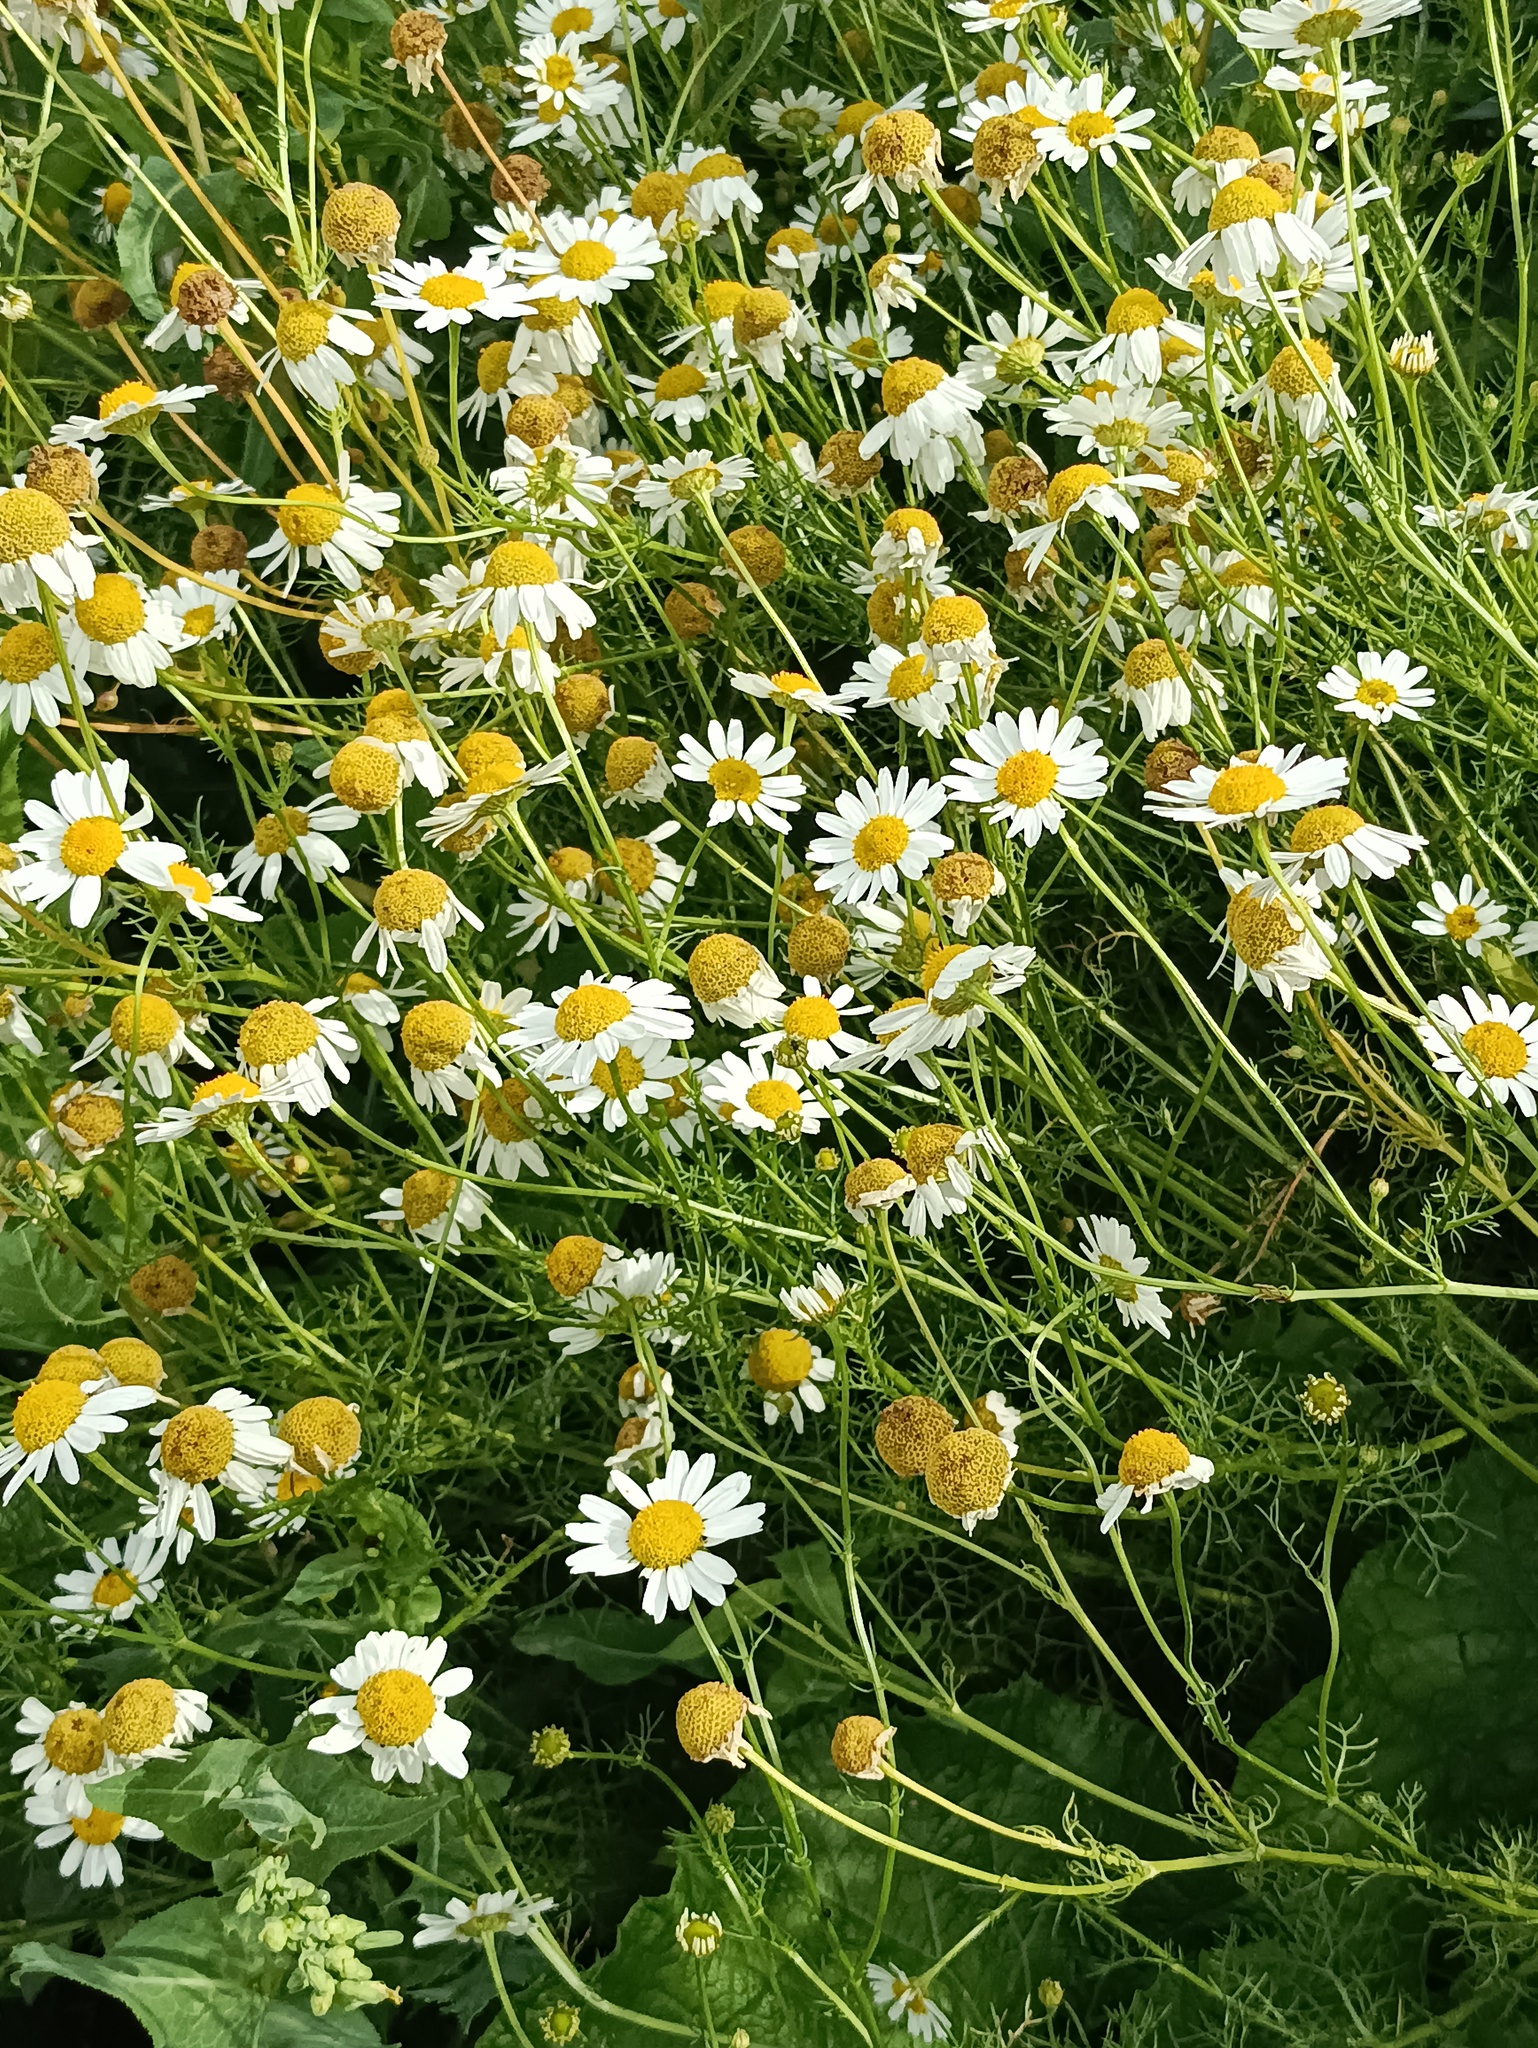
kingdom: Plantae
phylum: Tracheophyta
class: Magnoliopsida
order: Asterales
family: Asteraceae
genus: Tripleurospermum
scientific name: Tripleurospermum inodorum
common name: Scentless mayweed
